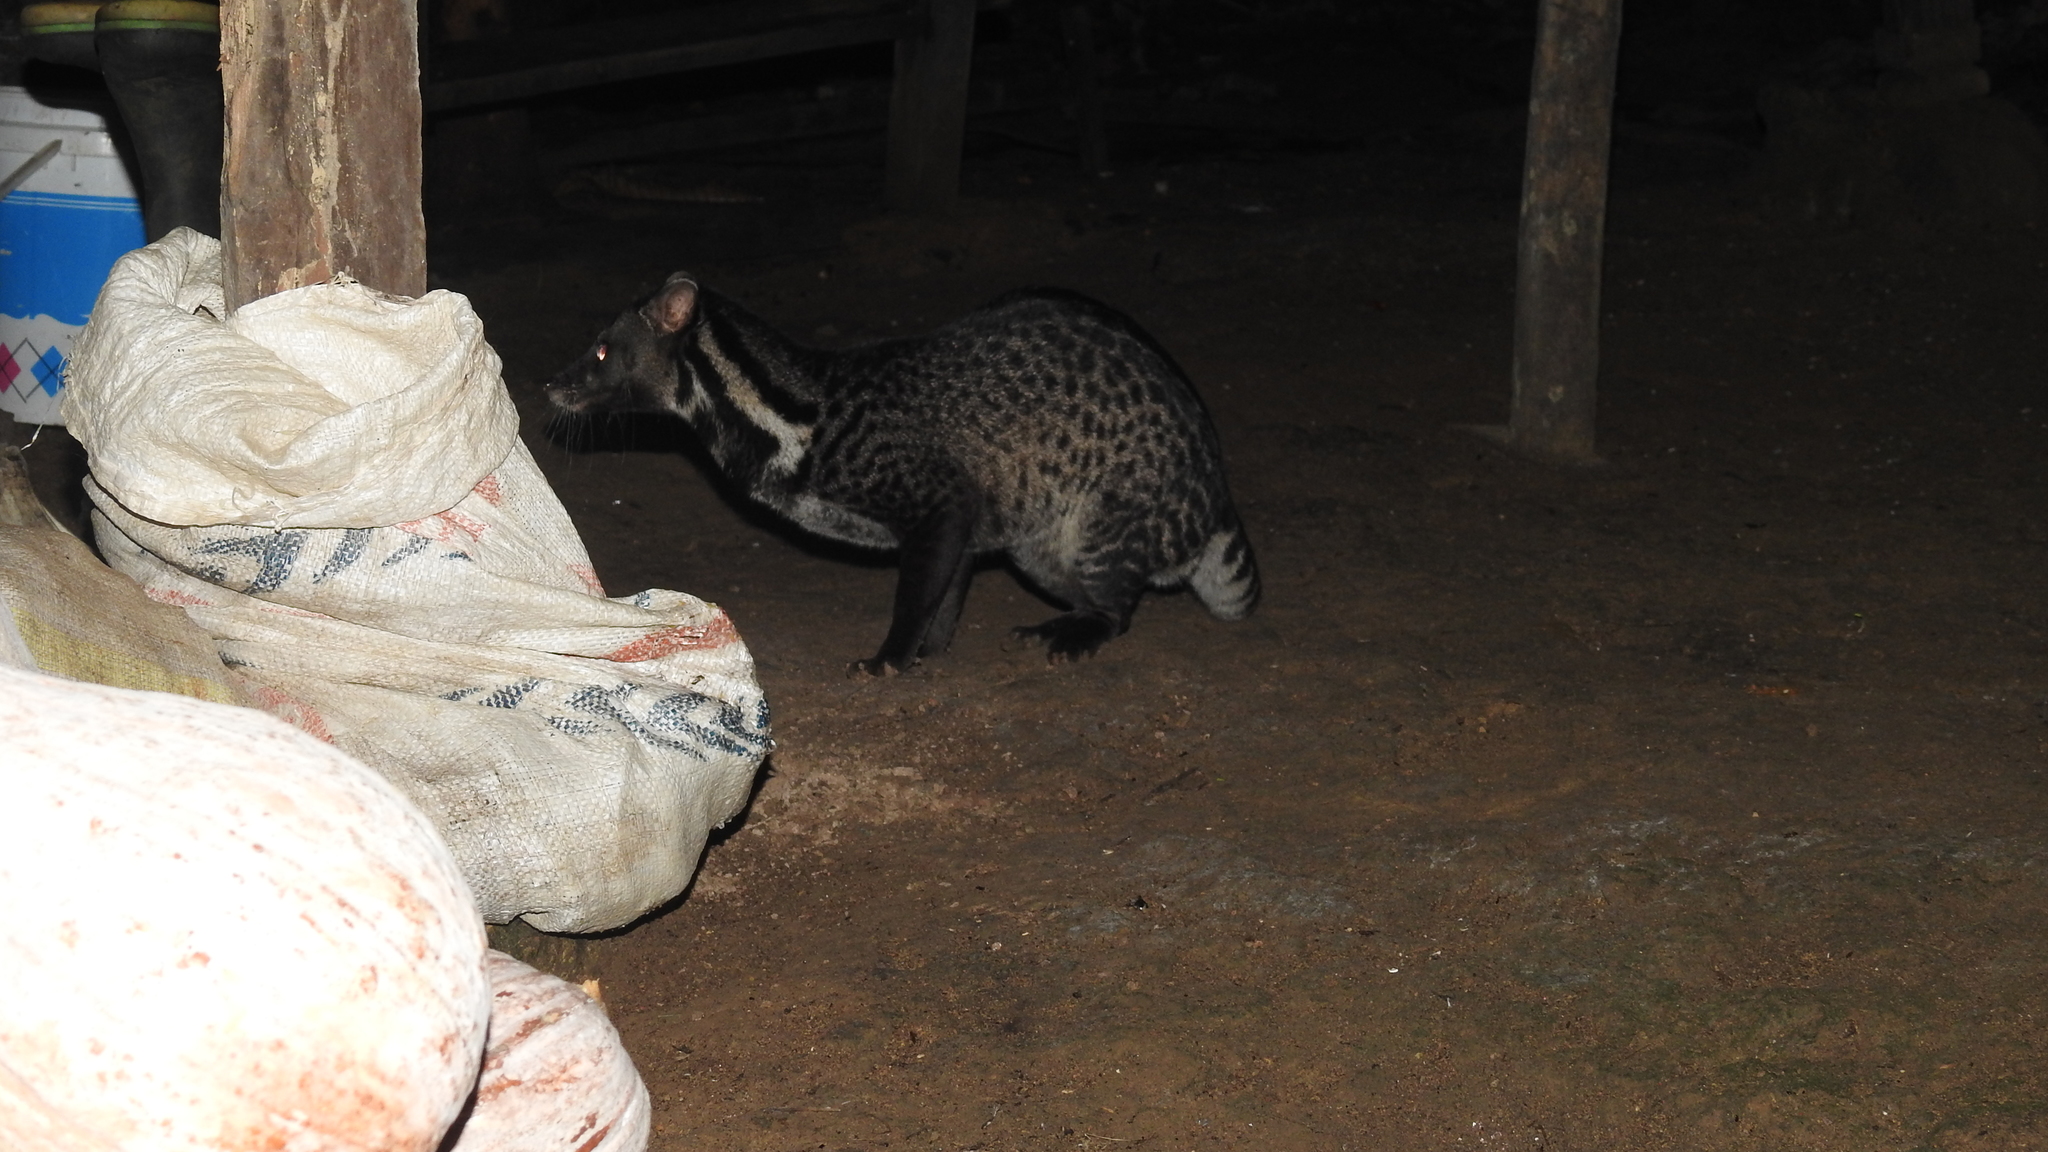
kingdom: Animalia
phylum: Chordata
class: Mammalia
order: Carnivora
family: Viverridae
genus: Viverra
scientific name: Viverra tangalunga
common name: Malayan civet
